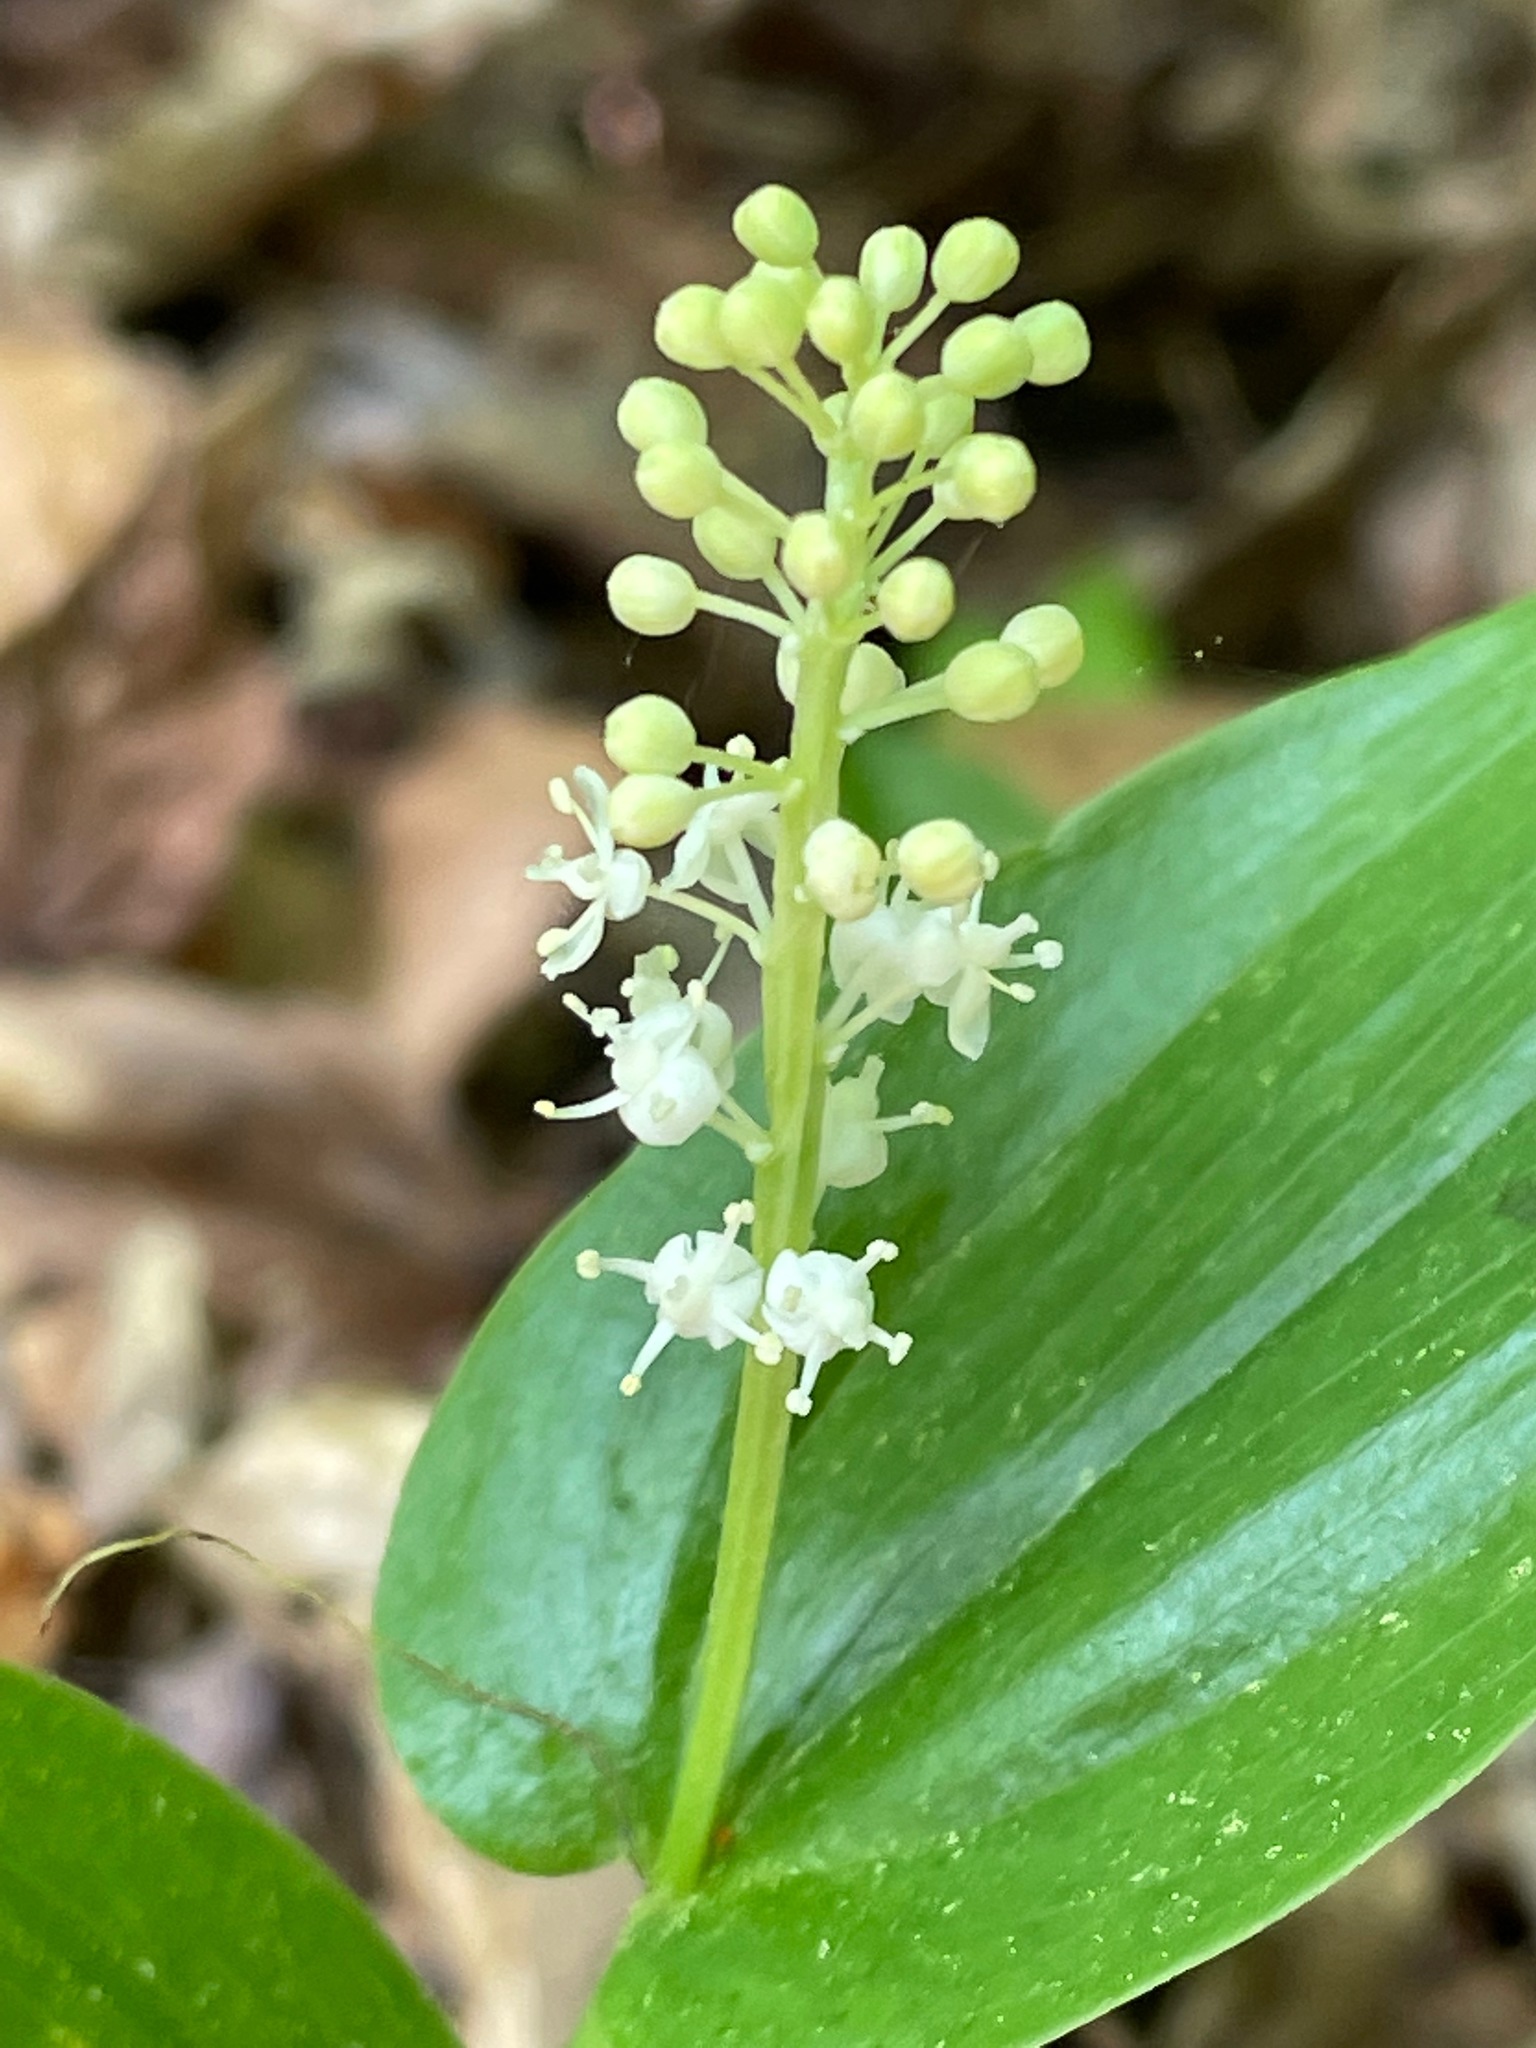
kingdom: Plantae
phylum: Tracheophyta
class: Liliopsida
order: Asparagales
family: Asparagaceae
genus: Maianthemum
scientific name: Maianthemum canadense
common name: False lily-of-the-valley
